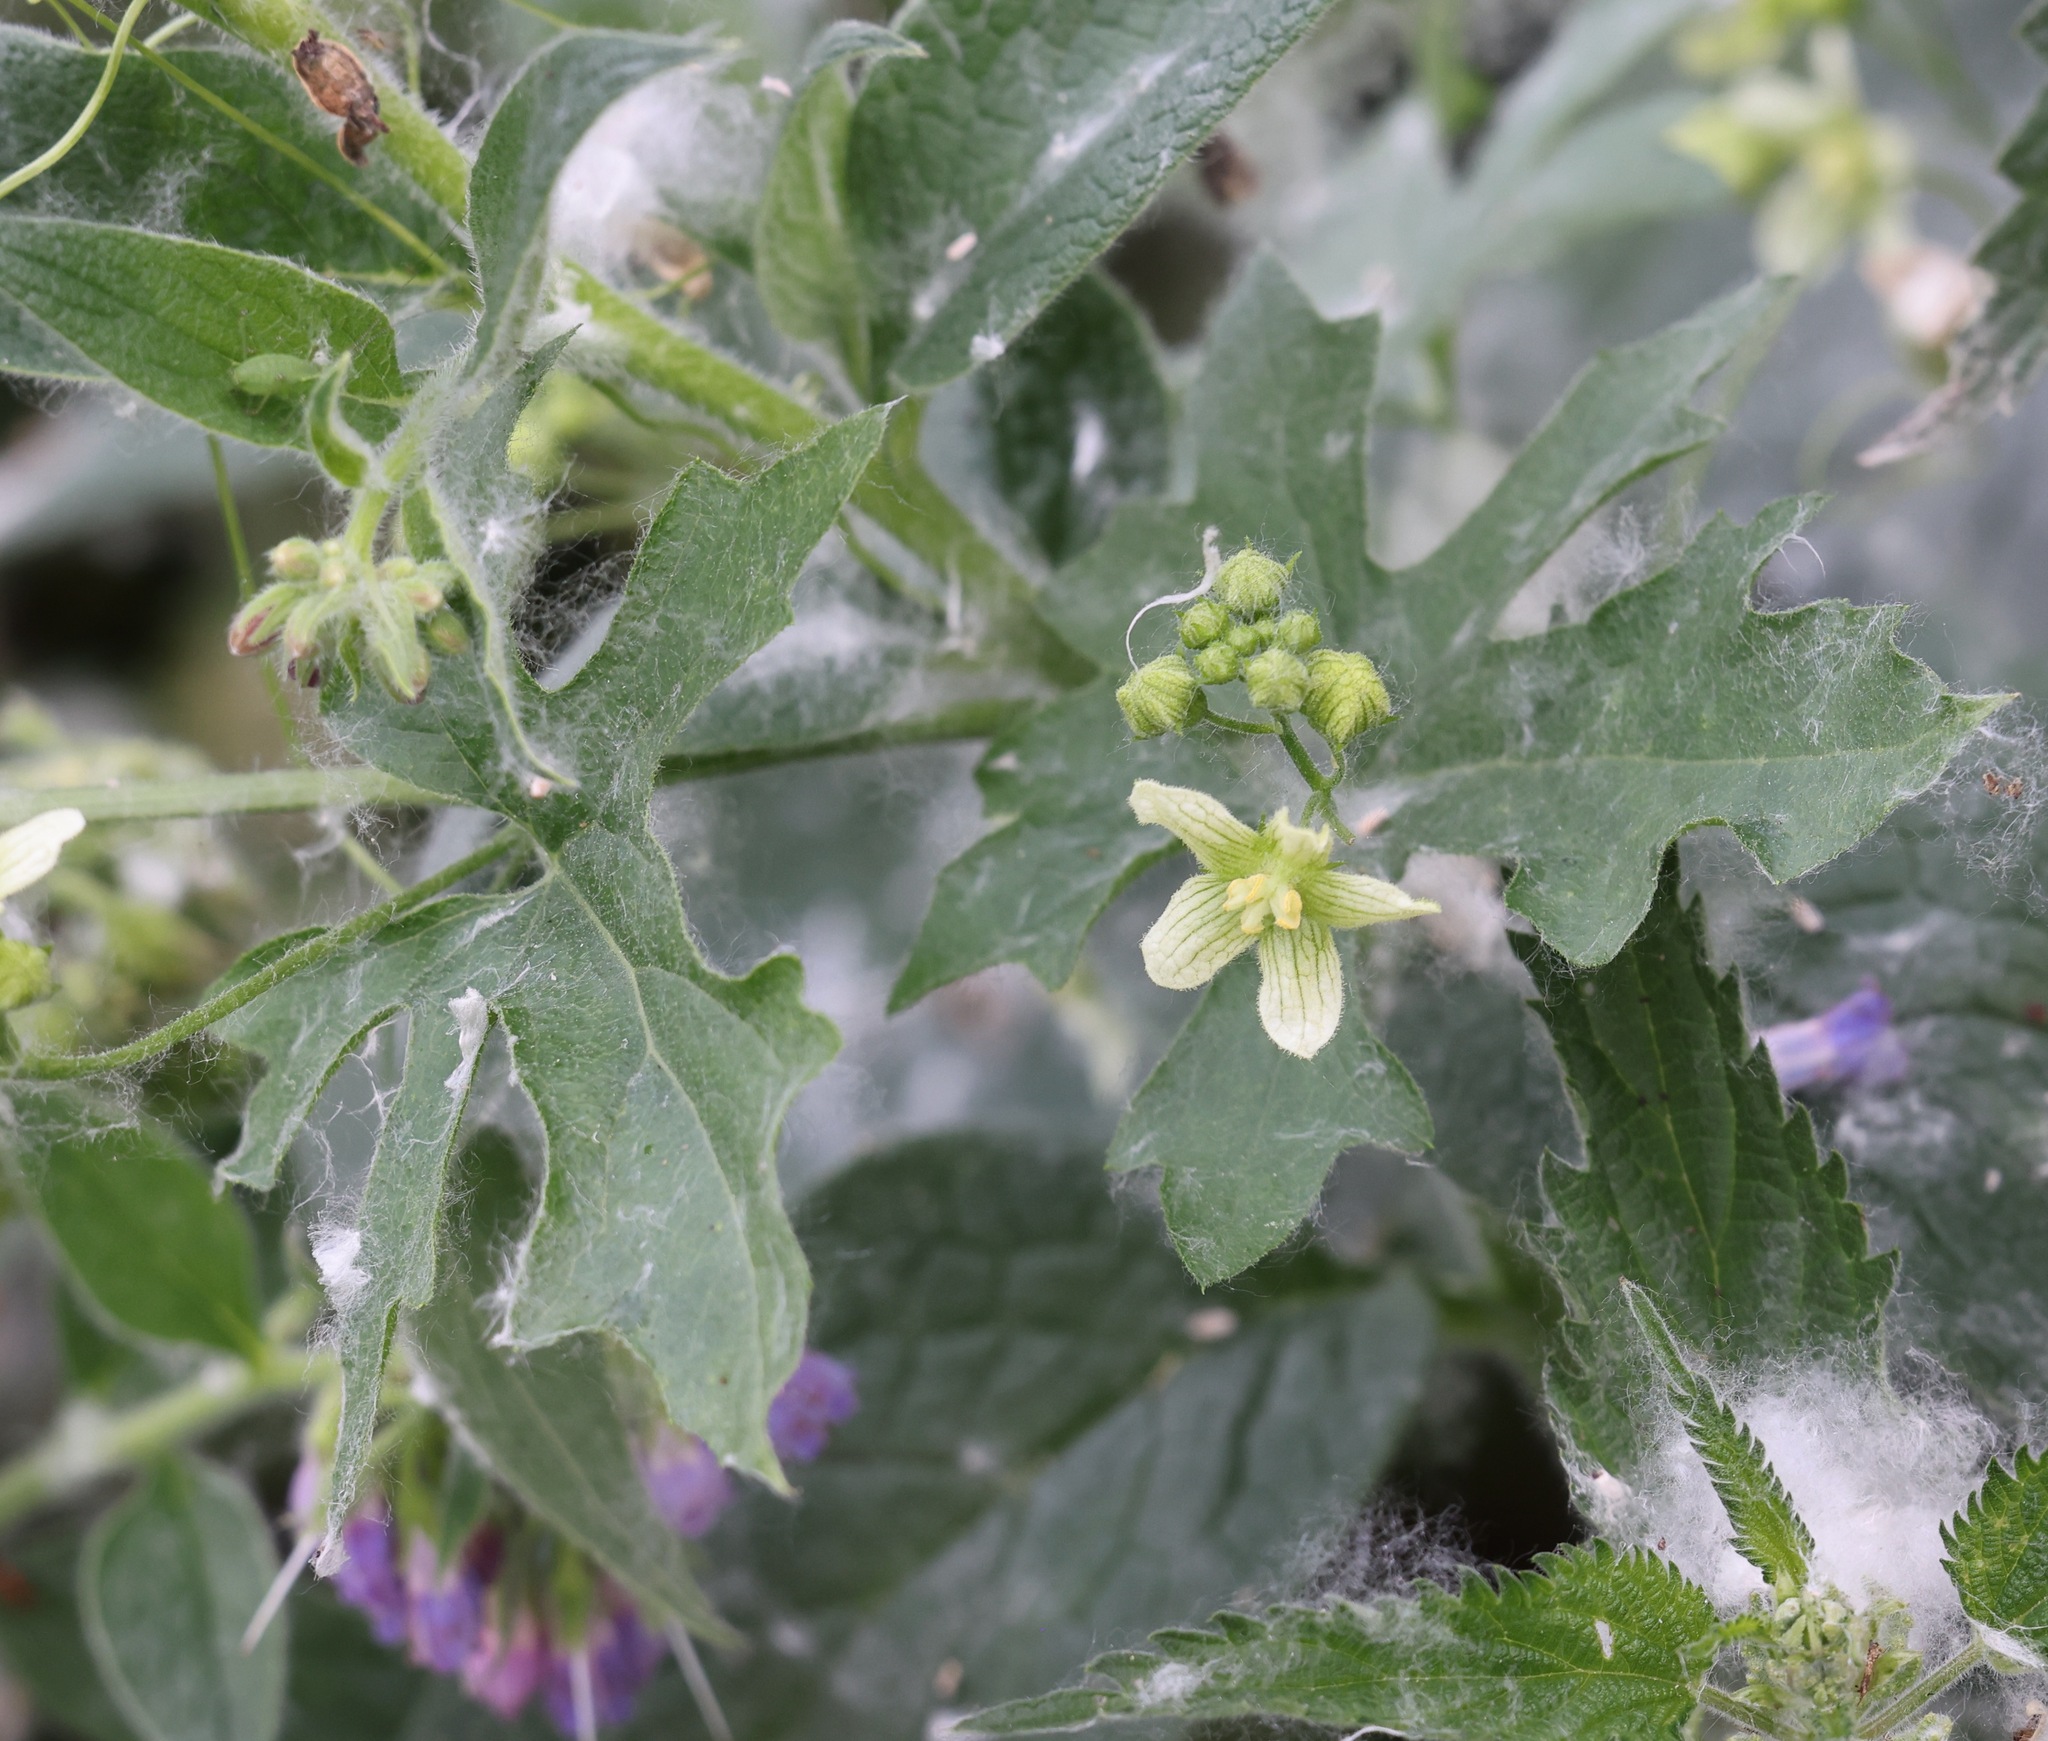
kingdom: Plantae
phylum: Tracheophyta
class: Magnoliopsida
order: Cucurbitales
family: Cucurbitaceae
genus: Bryonia
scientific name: Bryonia cretica
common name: Cretan bryony
